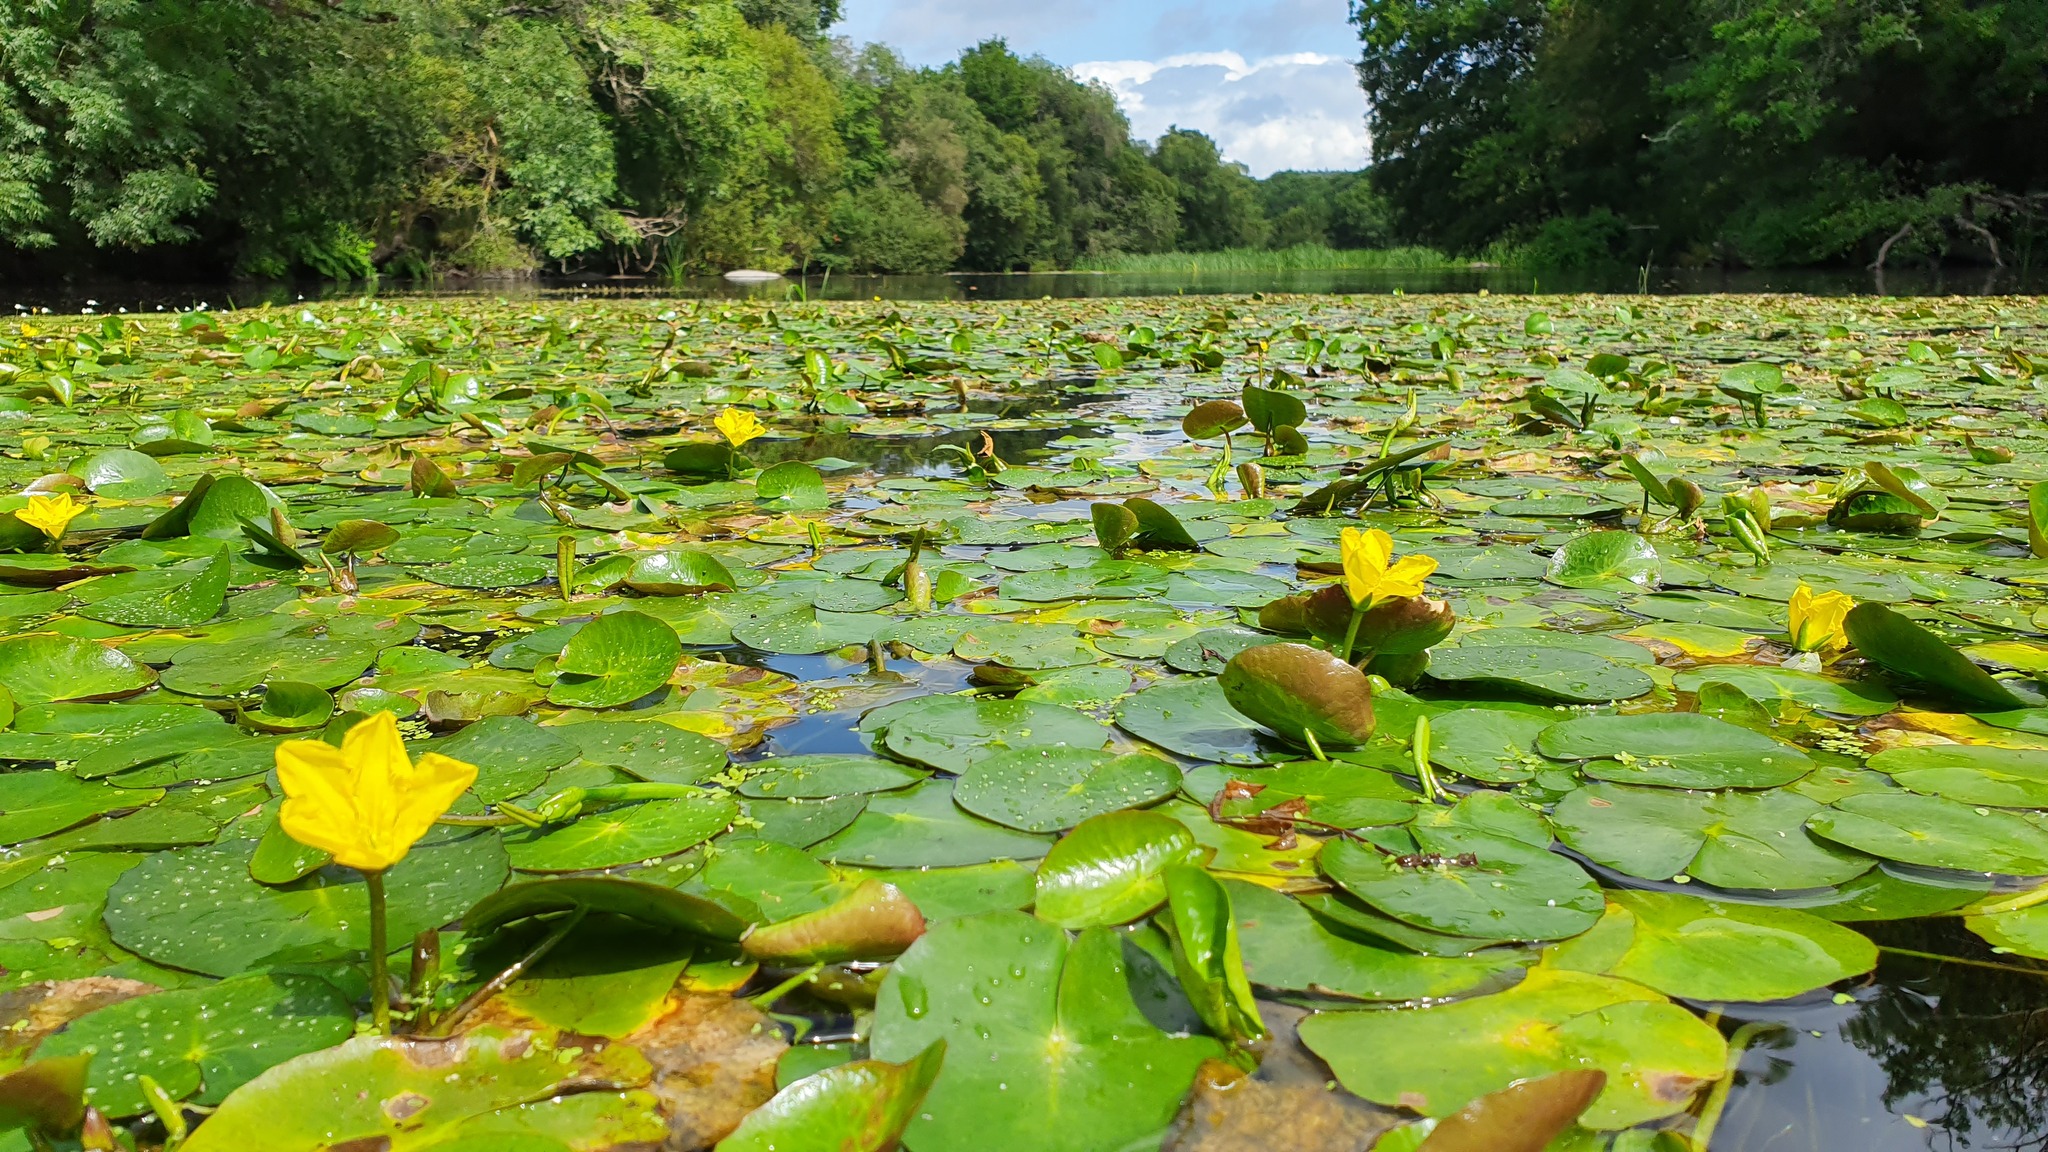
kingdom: Plantae
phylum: Tracheophyta
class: Magnoliopsida
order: Asterales
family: Menyanthaceae
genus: Nymphoides
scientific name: Nymphoides peltata
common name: Fringed water-lily
